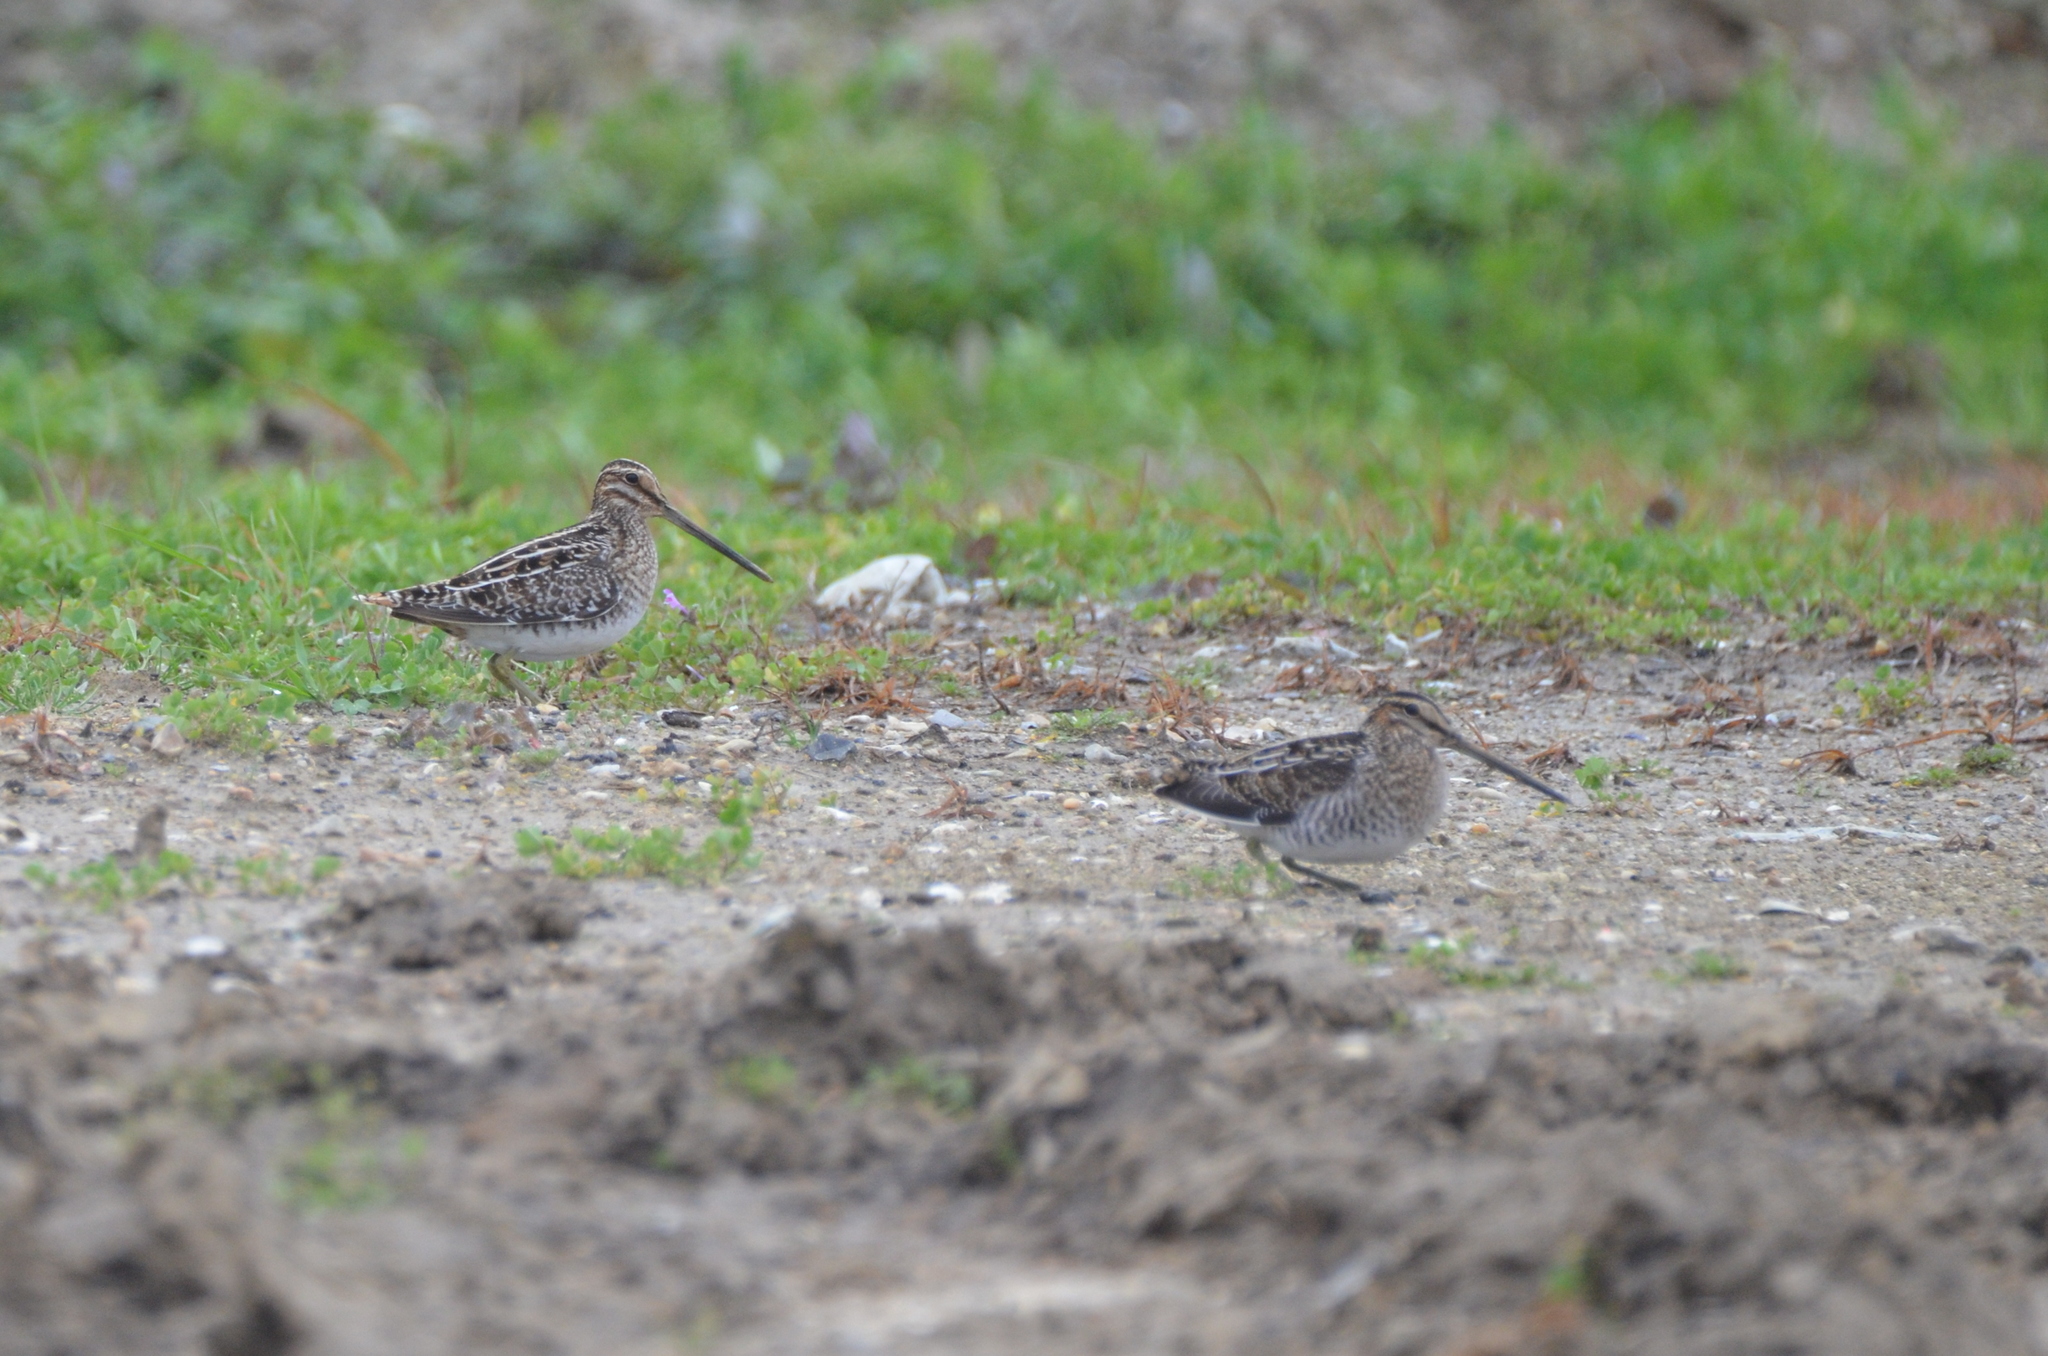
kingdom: Animalia
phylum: Chordata
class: Aves
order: Charadriiformes
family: Scolopacidae
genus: Gallinago
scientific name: Gallinago delicata
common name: Wilson's snipe
